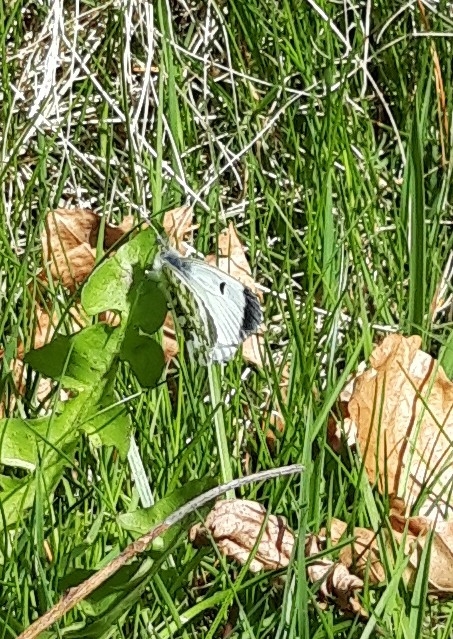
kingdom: Animalia
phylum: Arthropoda
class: Insecta
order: Lepidoptera
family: Pieridae
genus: Anthocharis
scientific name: Anthocharis cardamines
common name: Orange-tip
